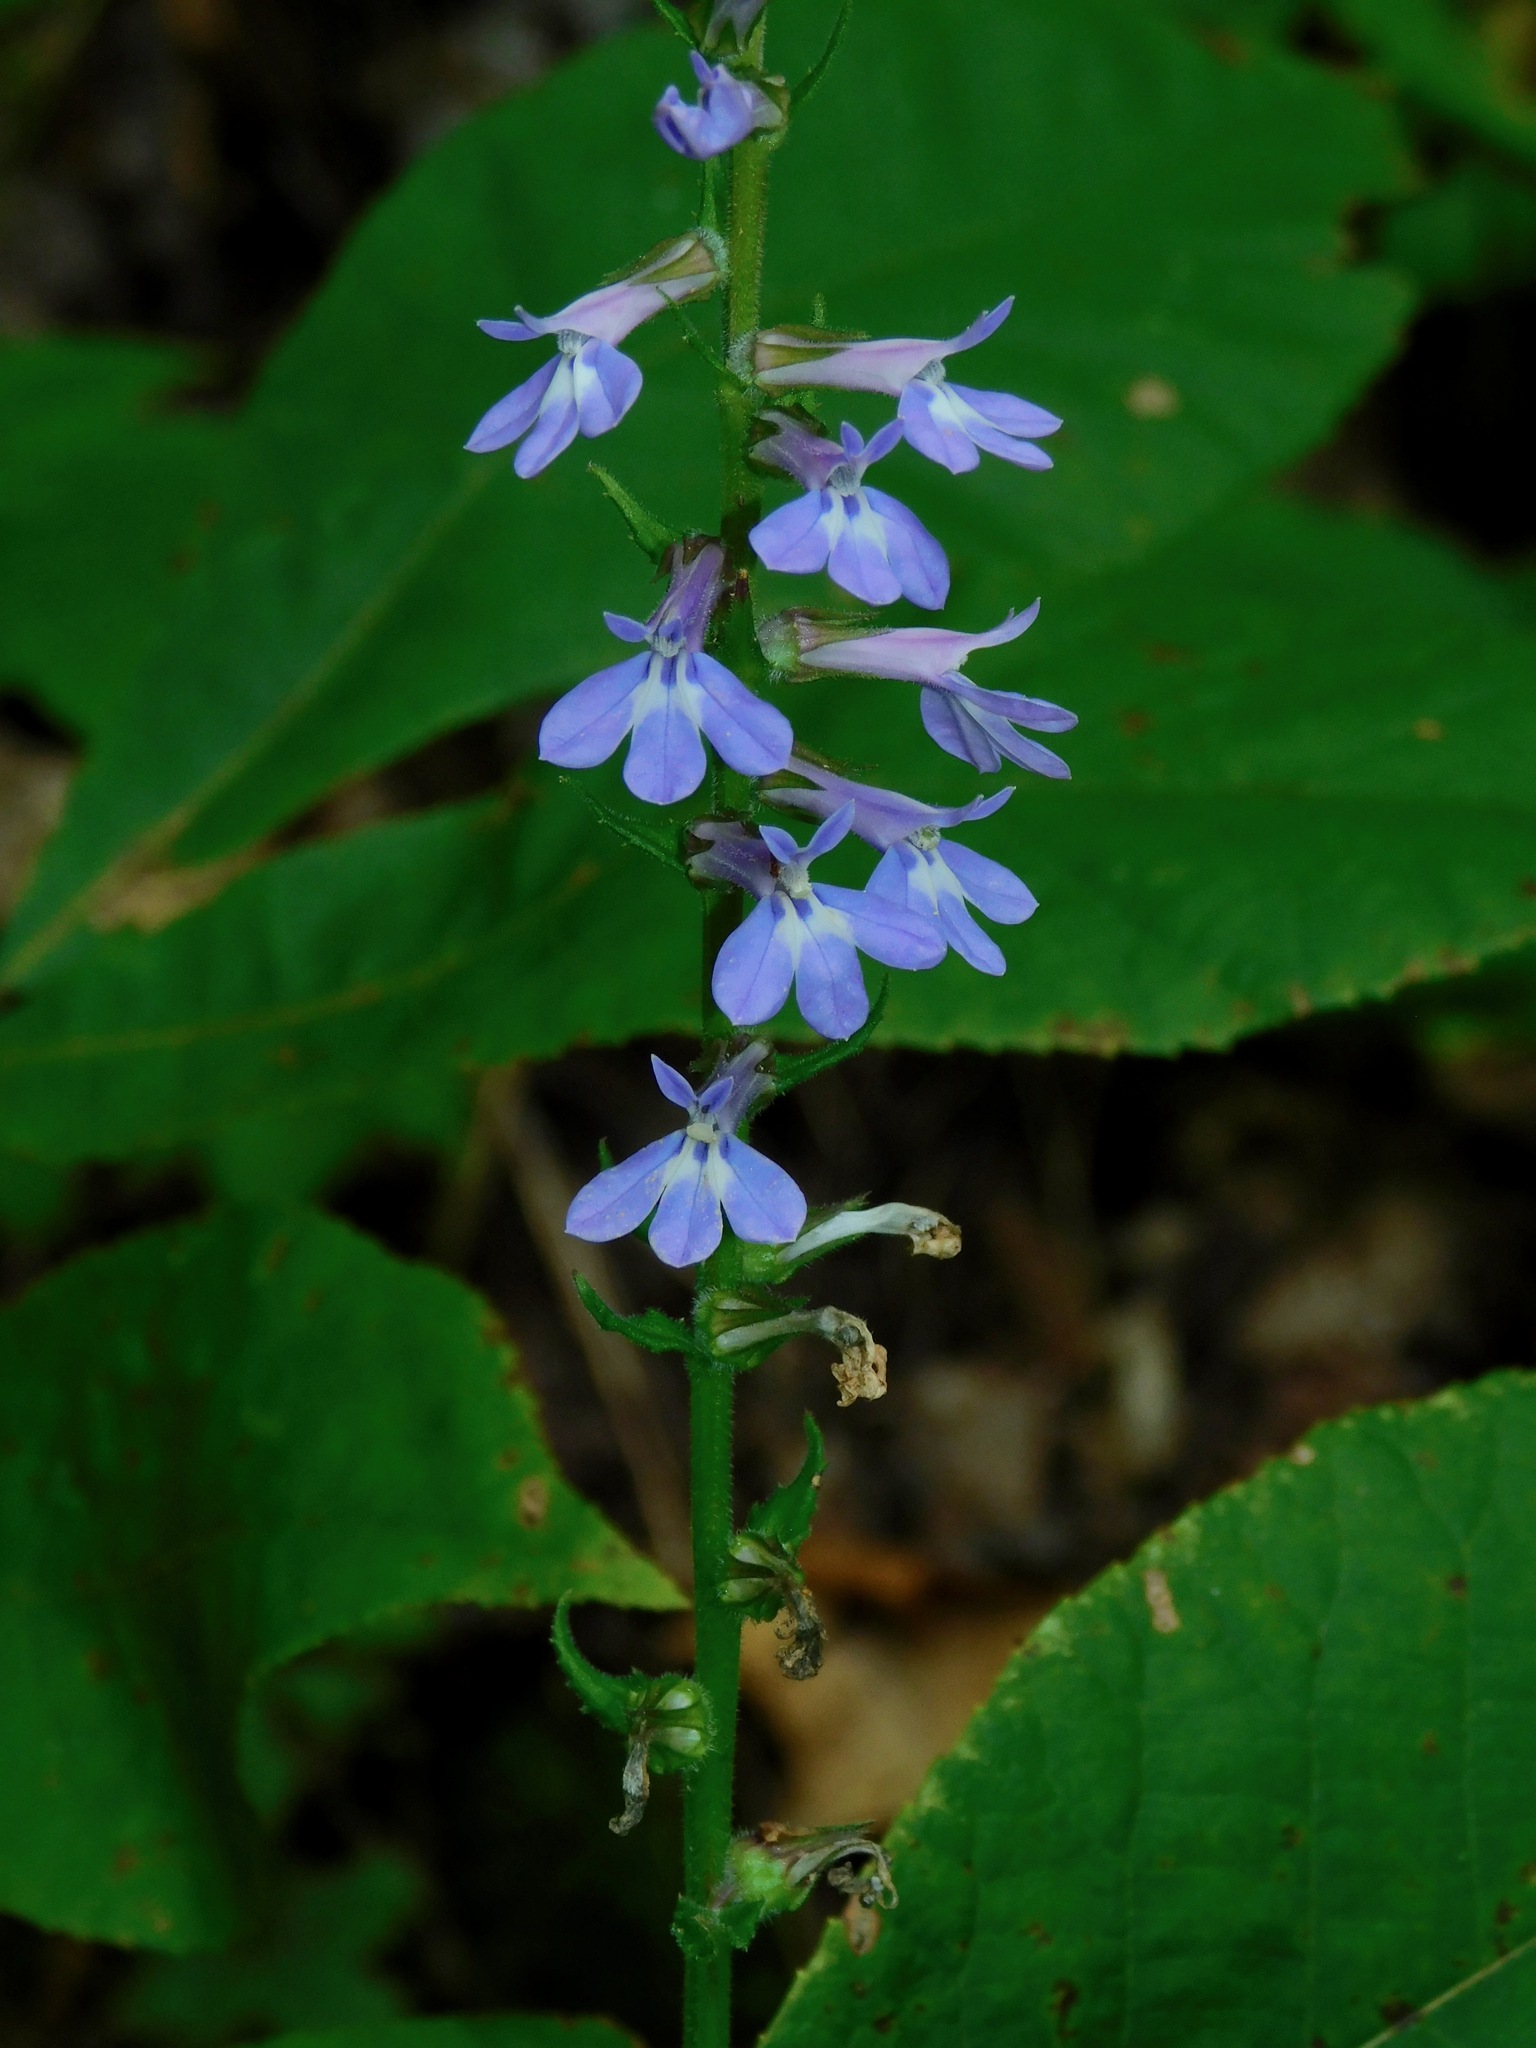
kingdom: Plantae
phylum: Tracheophyta
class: Magnoliopsida
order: Asterales
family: Campanulaceae
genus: Lobelia
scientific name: Lobelia puberula
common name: Purple dewdrop
